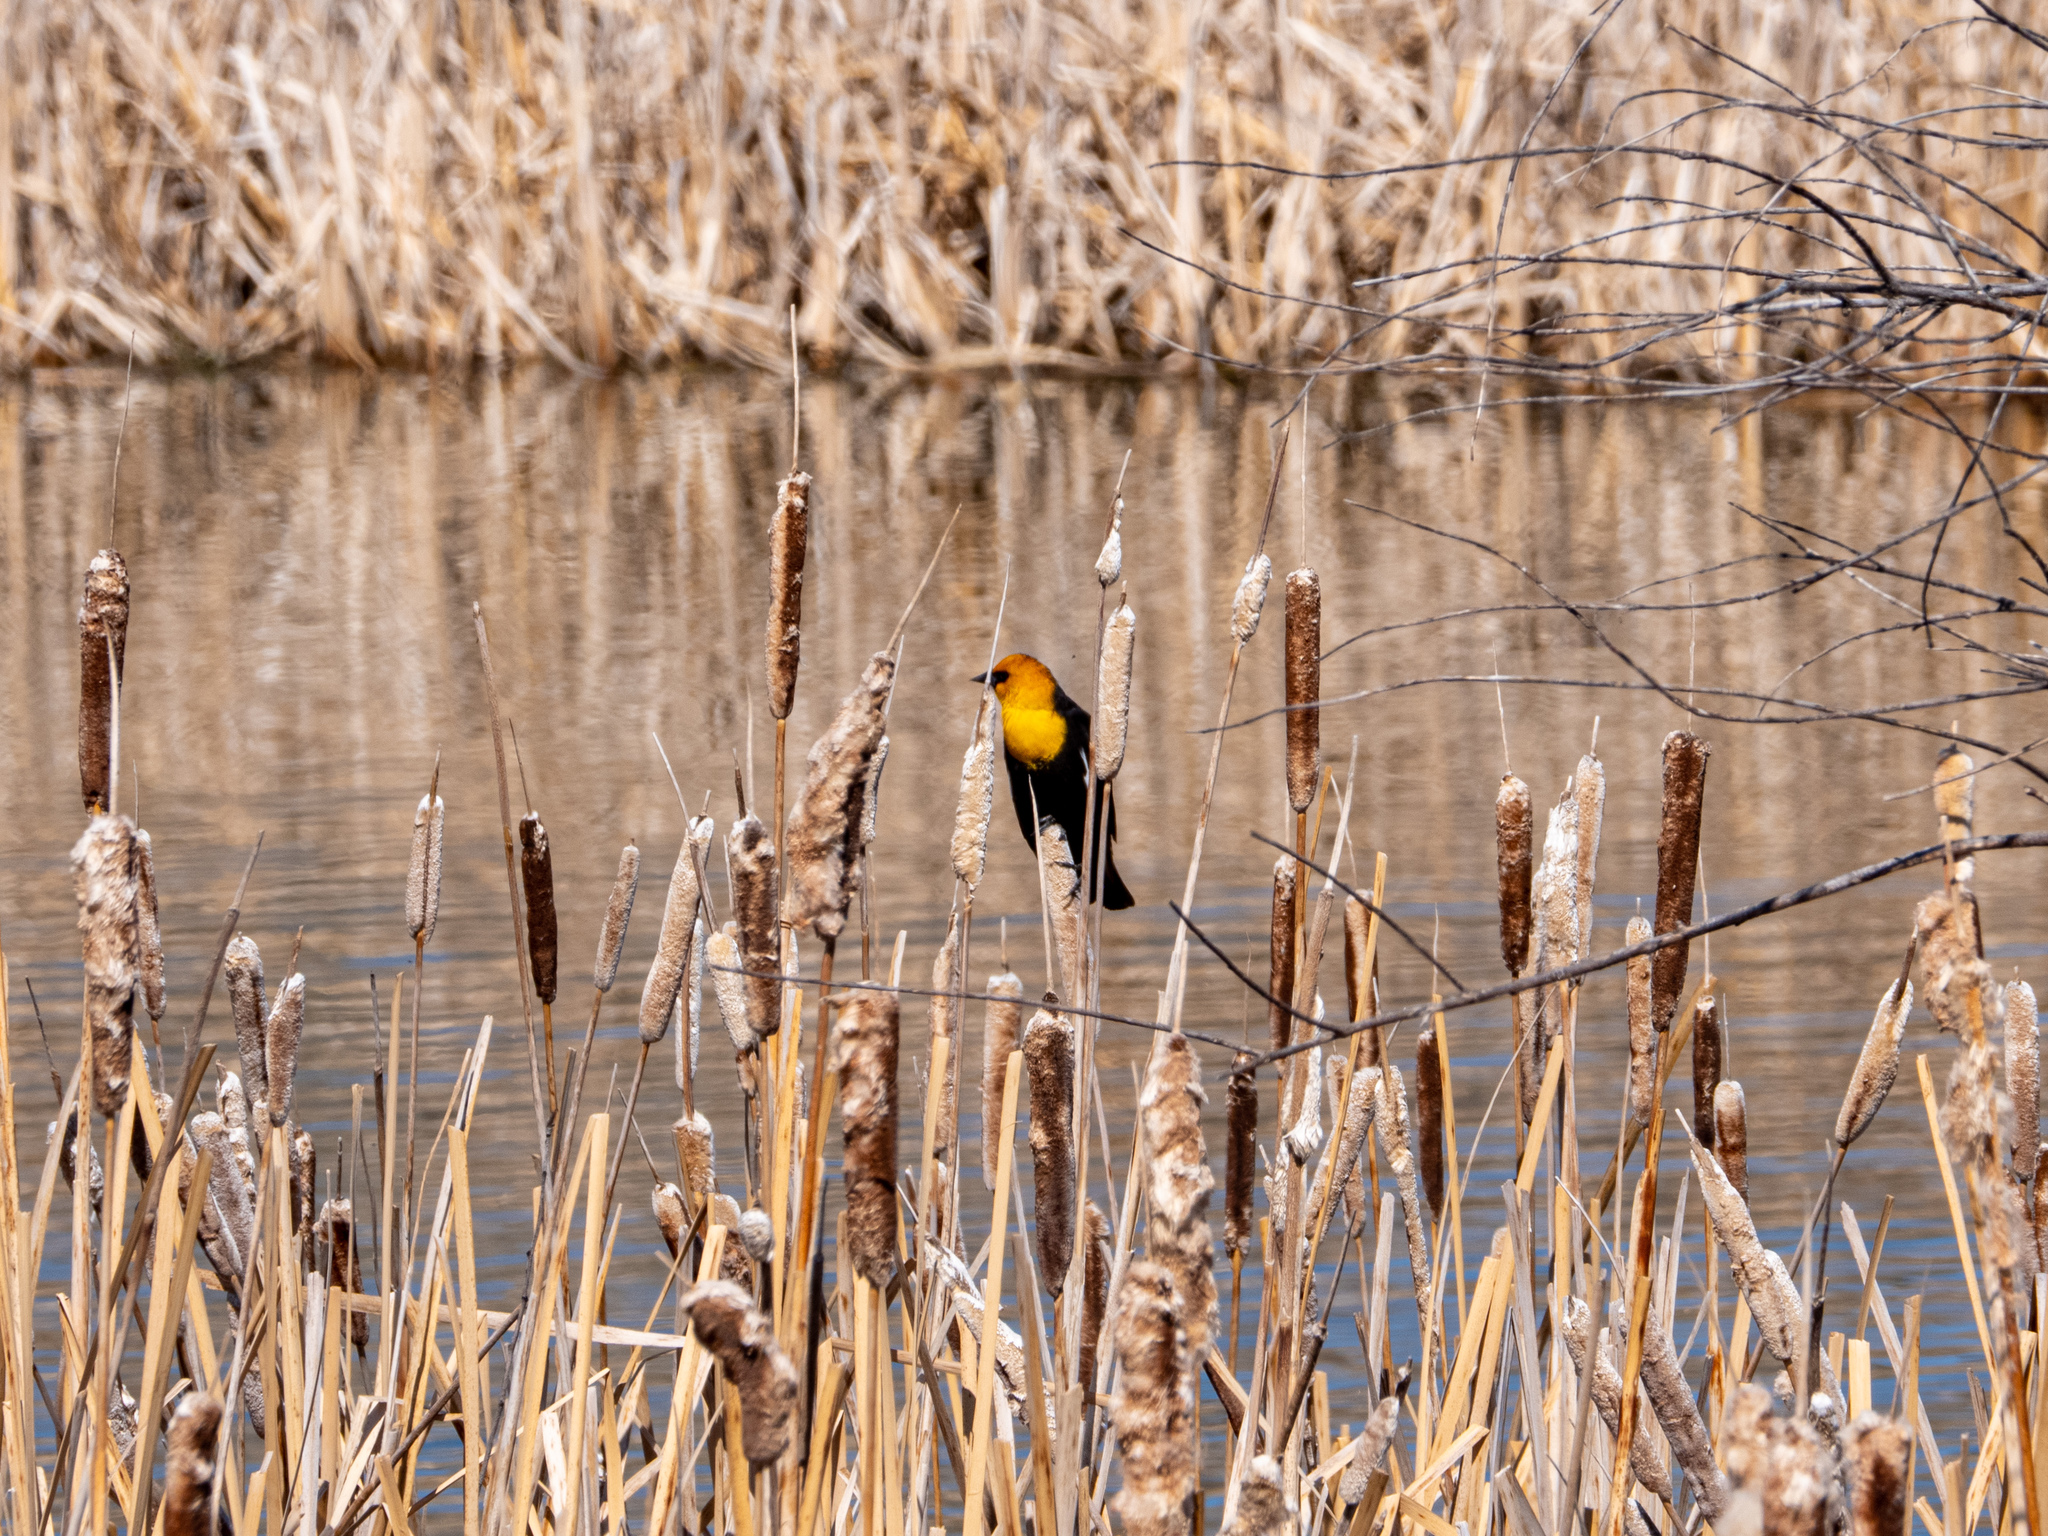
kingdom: Animalia
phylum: Chordata
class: Aves
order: Passeriformes
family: Icteridae
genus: Xanthocephalus
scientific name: Xanthocephalus xanthocephalus
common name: Yellow-headed blackbird
